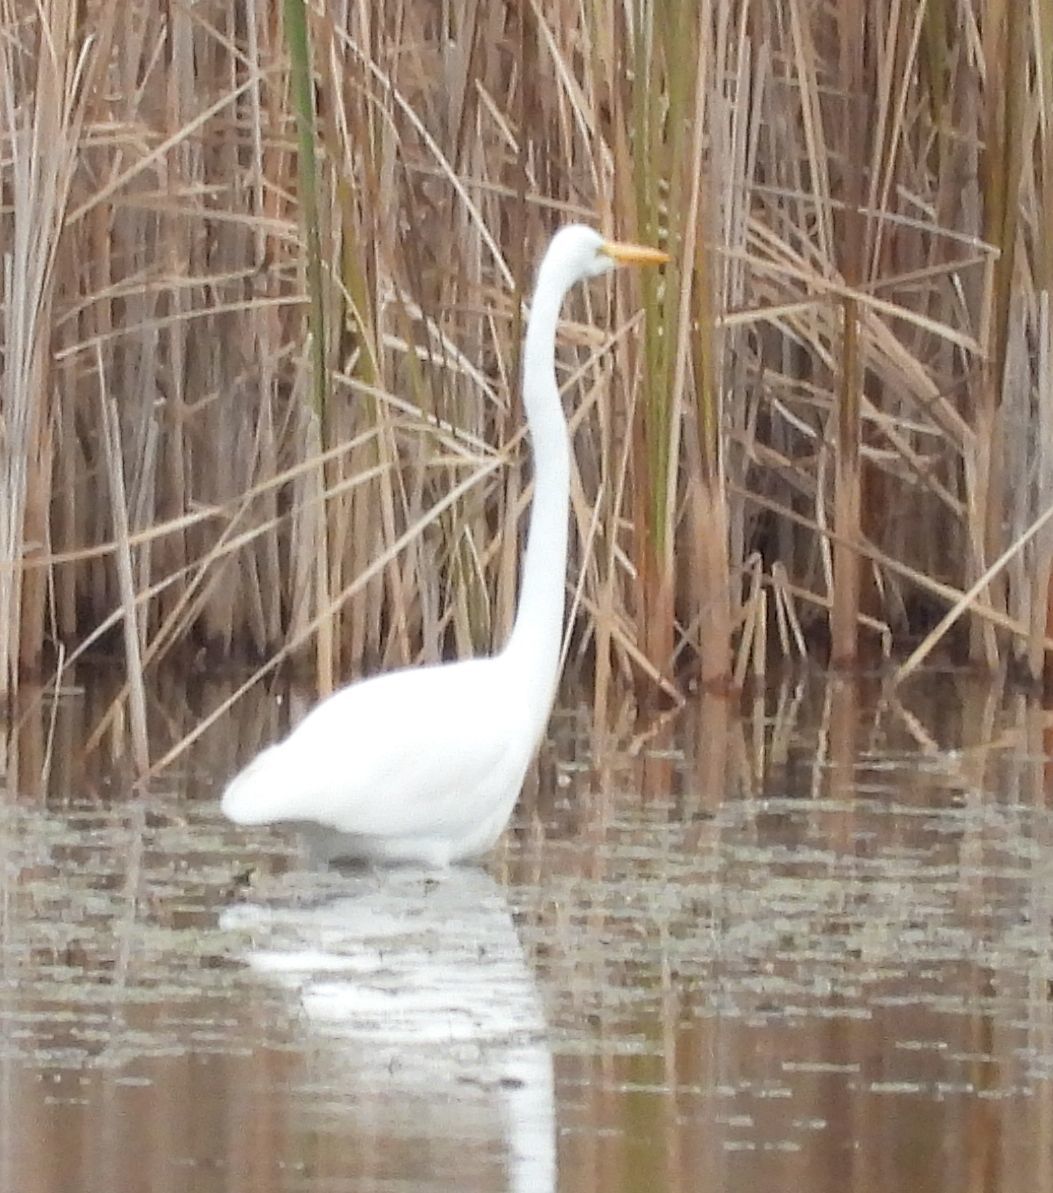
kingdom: Animalia
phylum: Chordata
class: Aves
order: Pelecaniformes
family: Ardeidae
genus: Ardea
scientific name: Ardea alba
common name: Great egret
